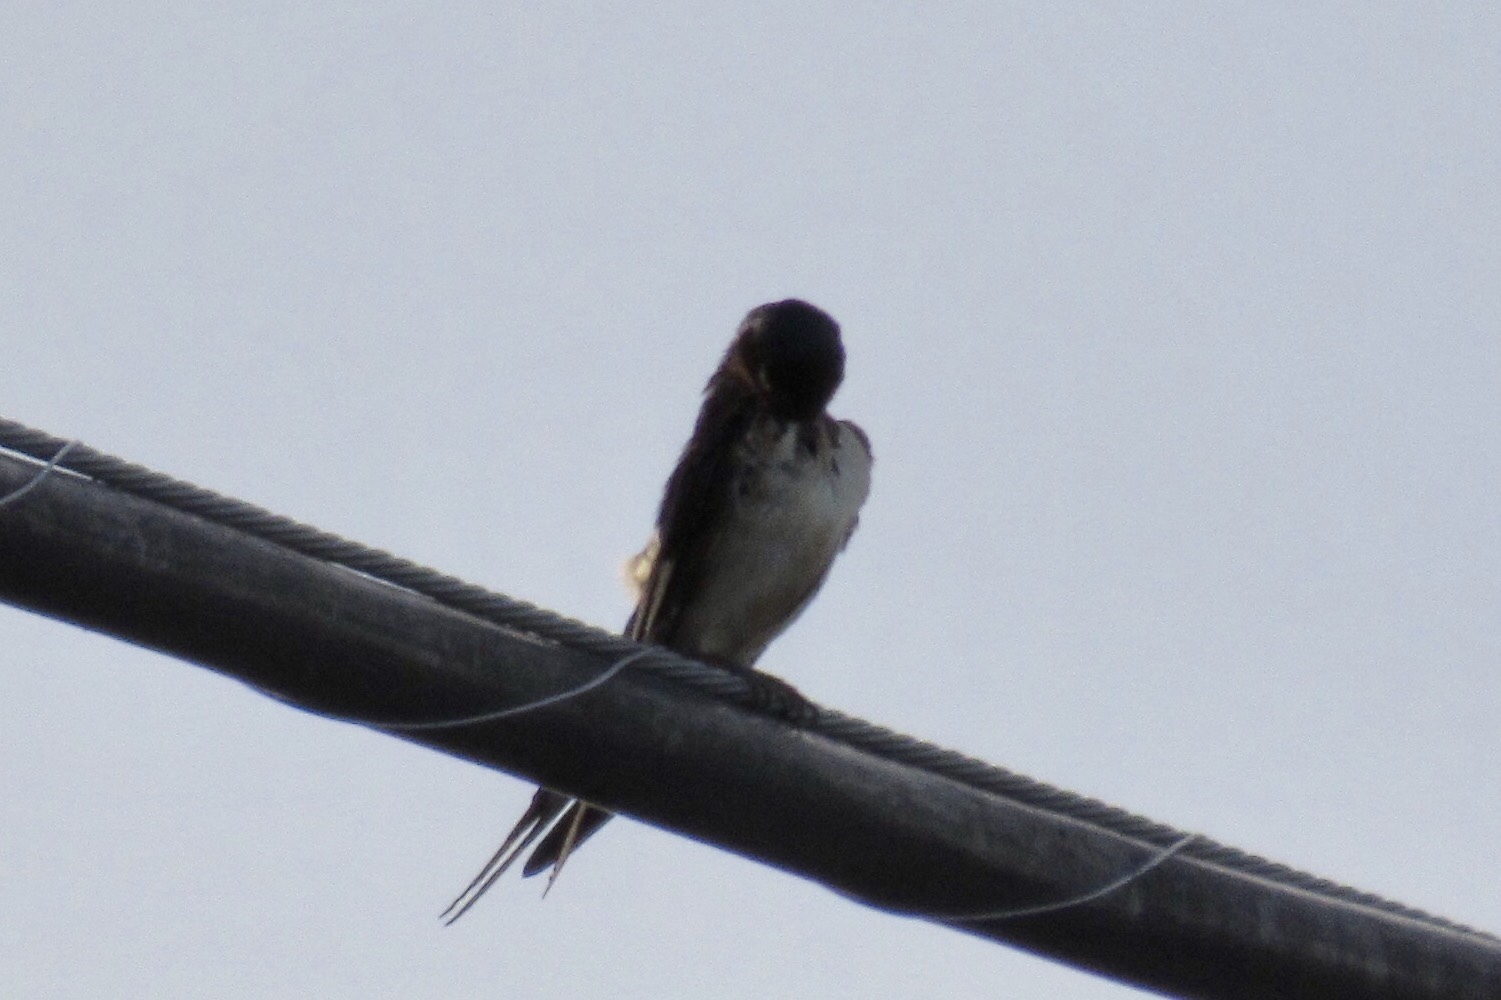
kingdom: Animalia
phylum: Chordata
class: Aves
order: Passeriformes
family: Hirundinidae
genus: Hirundo
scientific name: Hirundo rustica
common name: Barn swallow
